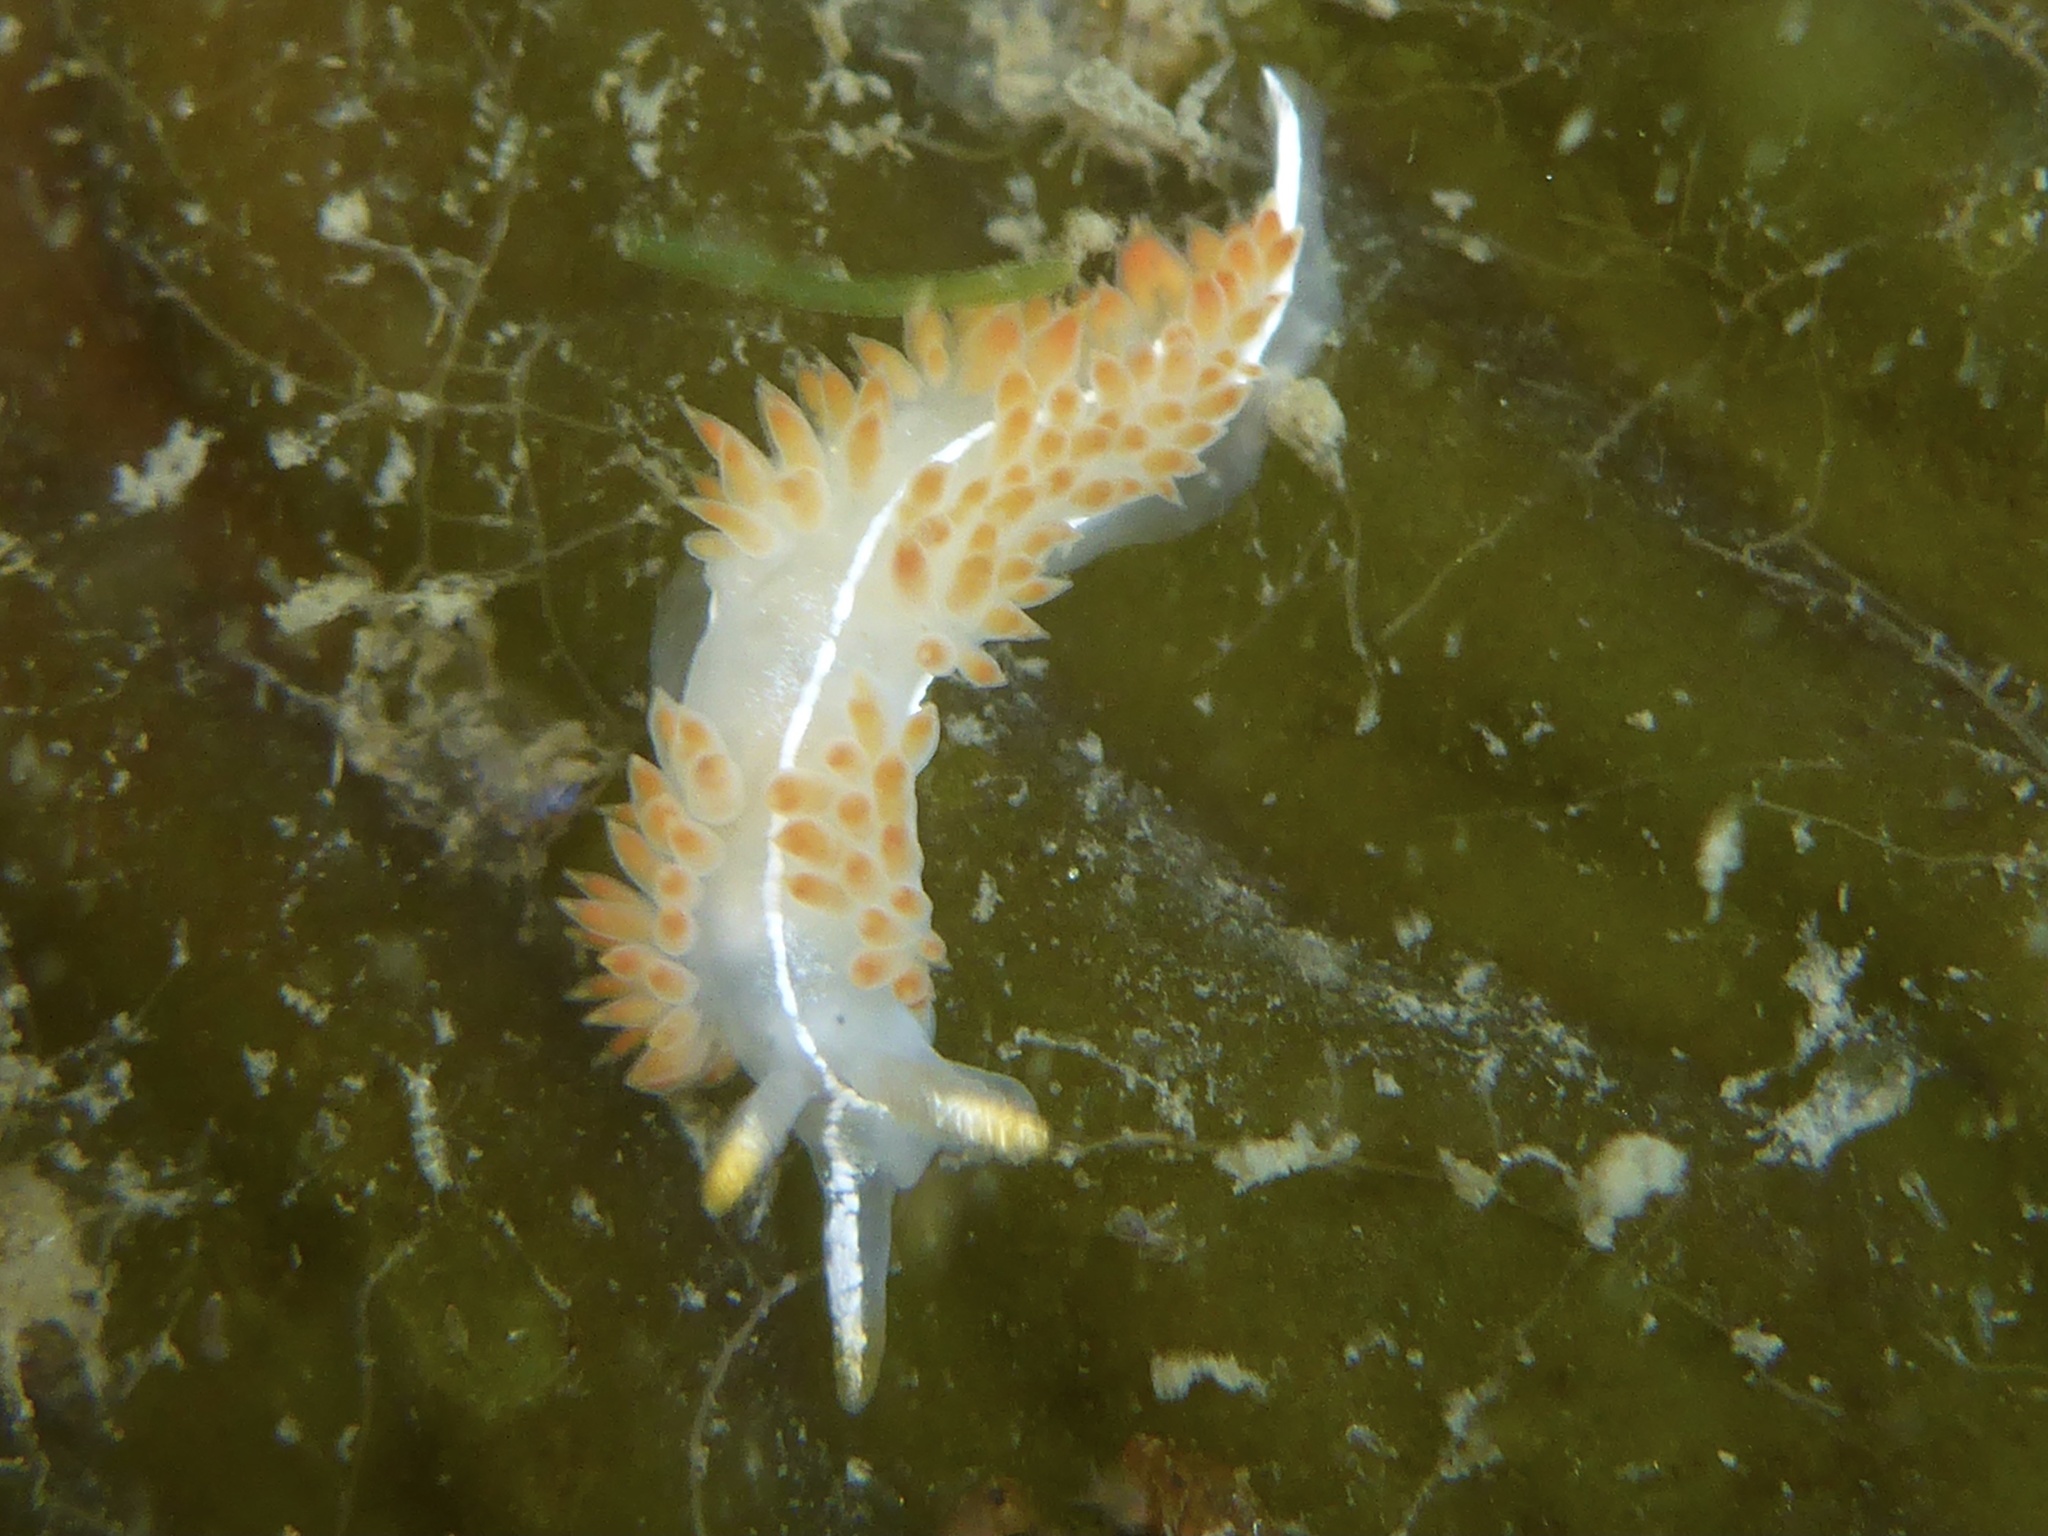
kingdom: Animalia
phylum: Mollusca
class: Gastropoda
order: Nudibranchia
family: Coryphellidae
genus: Coryphella
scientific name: Coryphella trilineata
